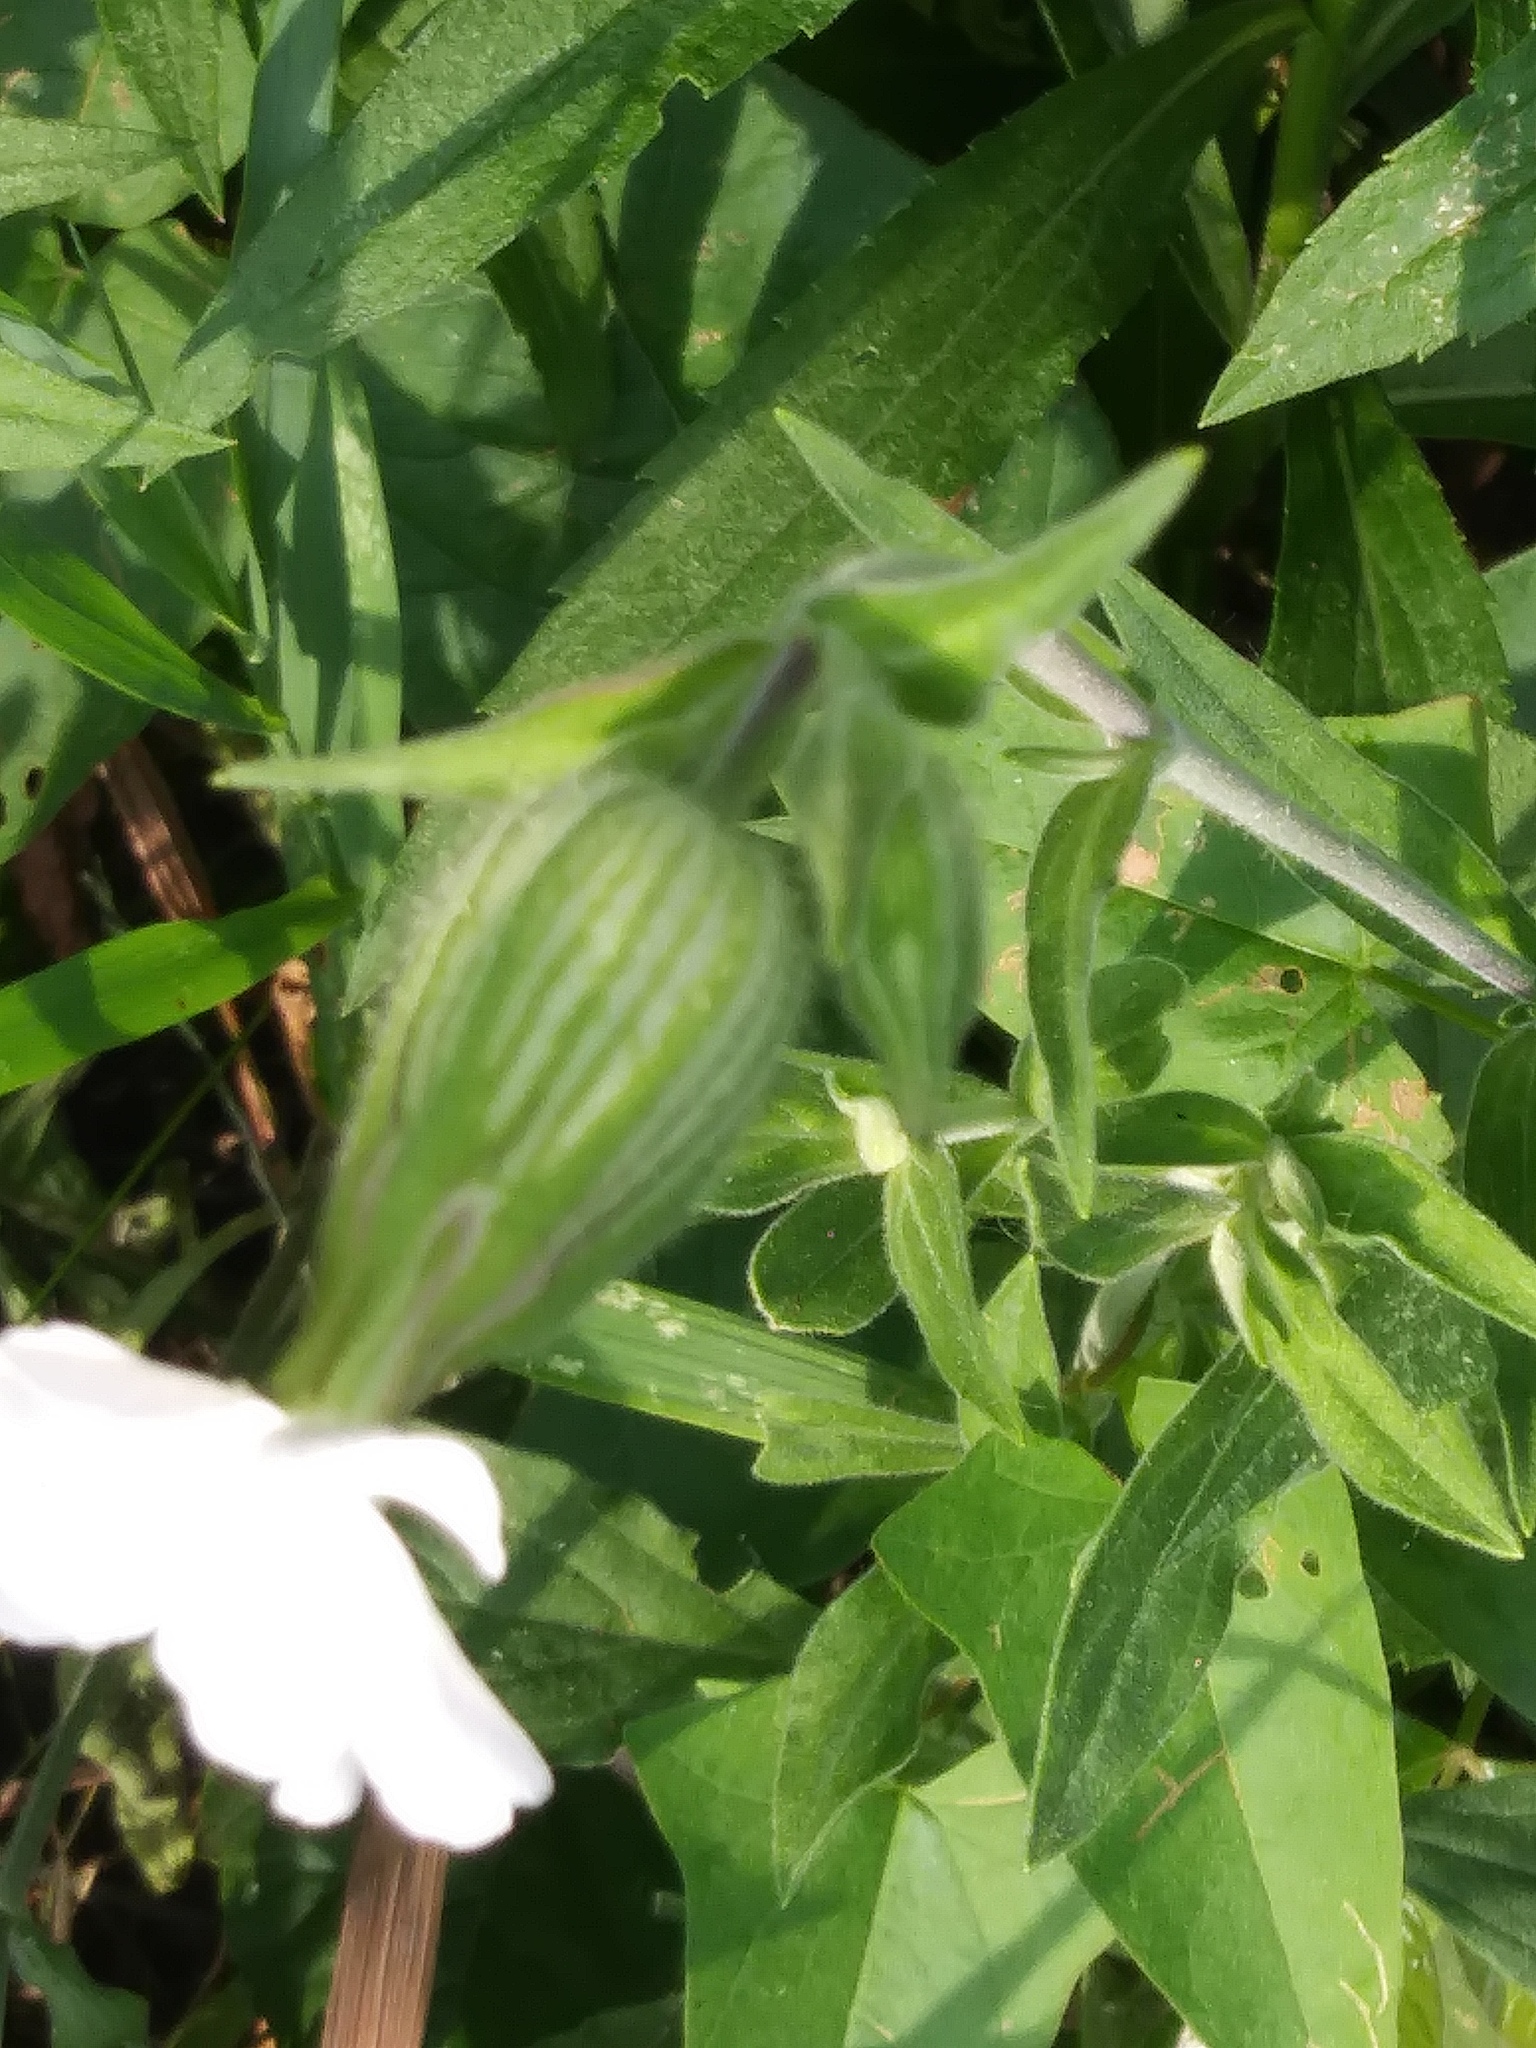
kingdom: Plantae
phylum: Tracheophyta
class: Magnoliopsida
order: Caryophyllales
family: Caryophyllaceae
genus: Silene
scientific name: Silene latifolia
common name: White campion
